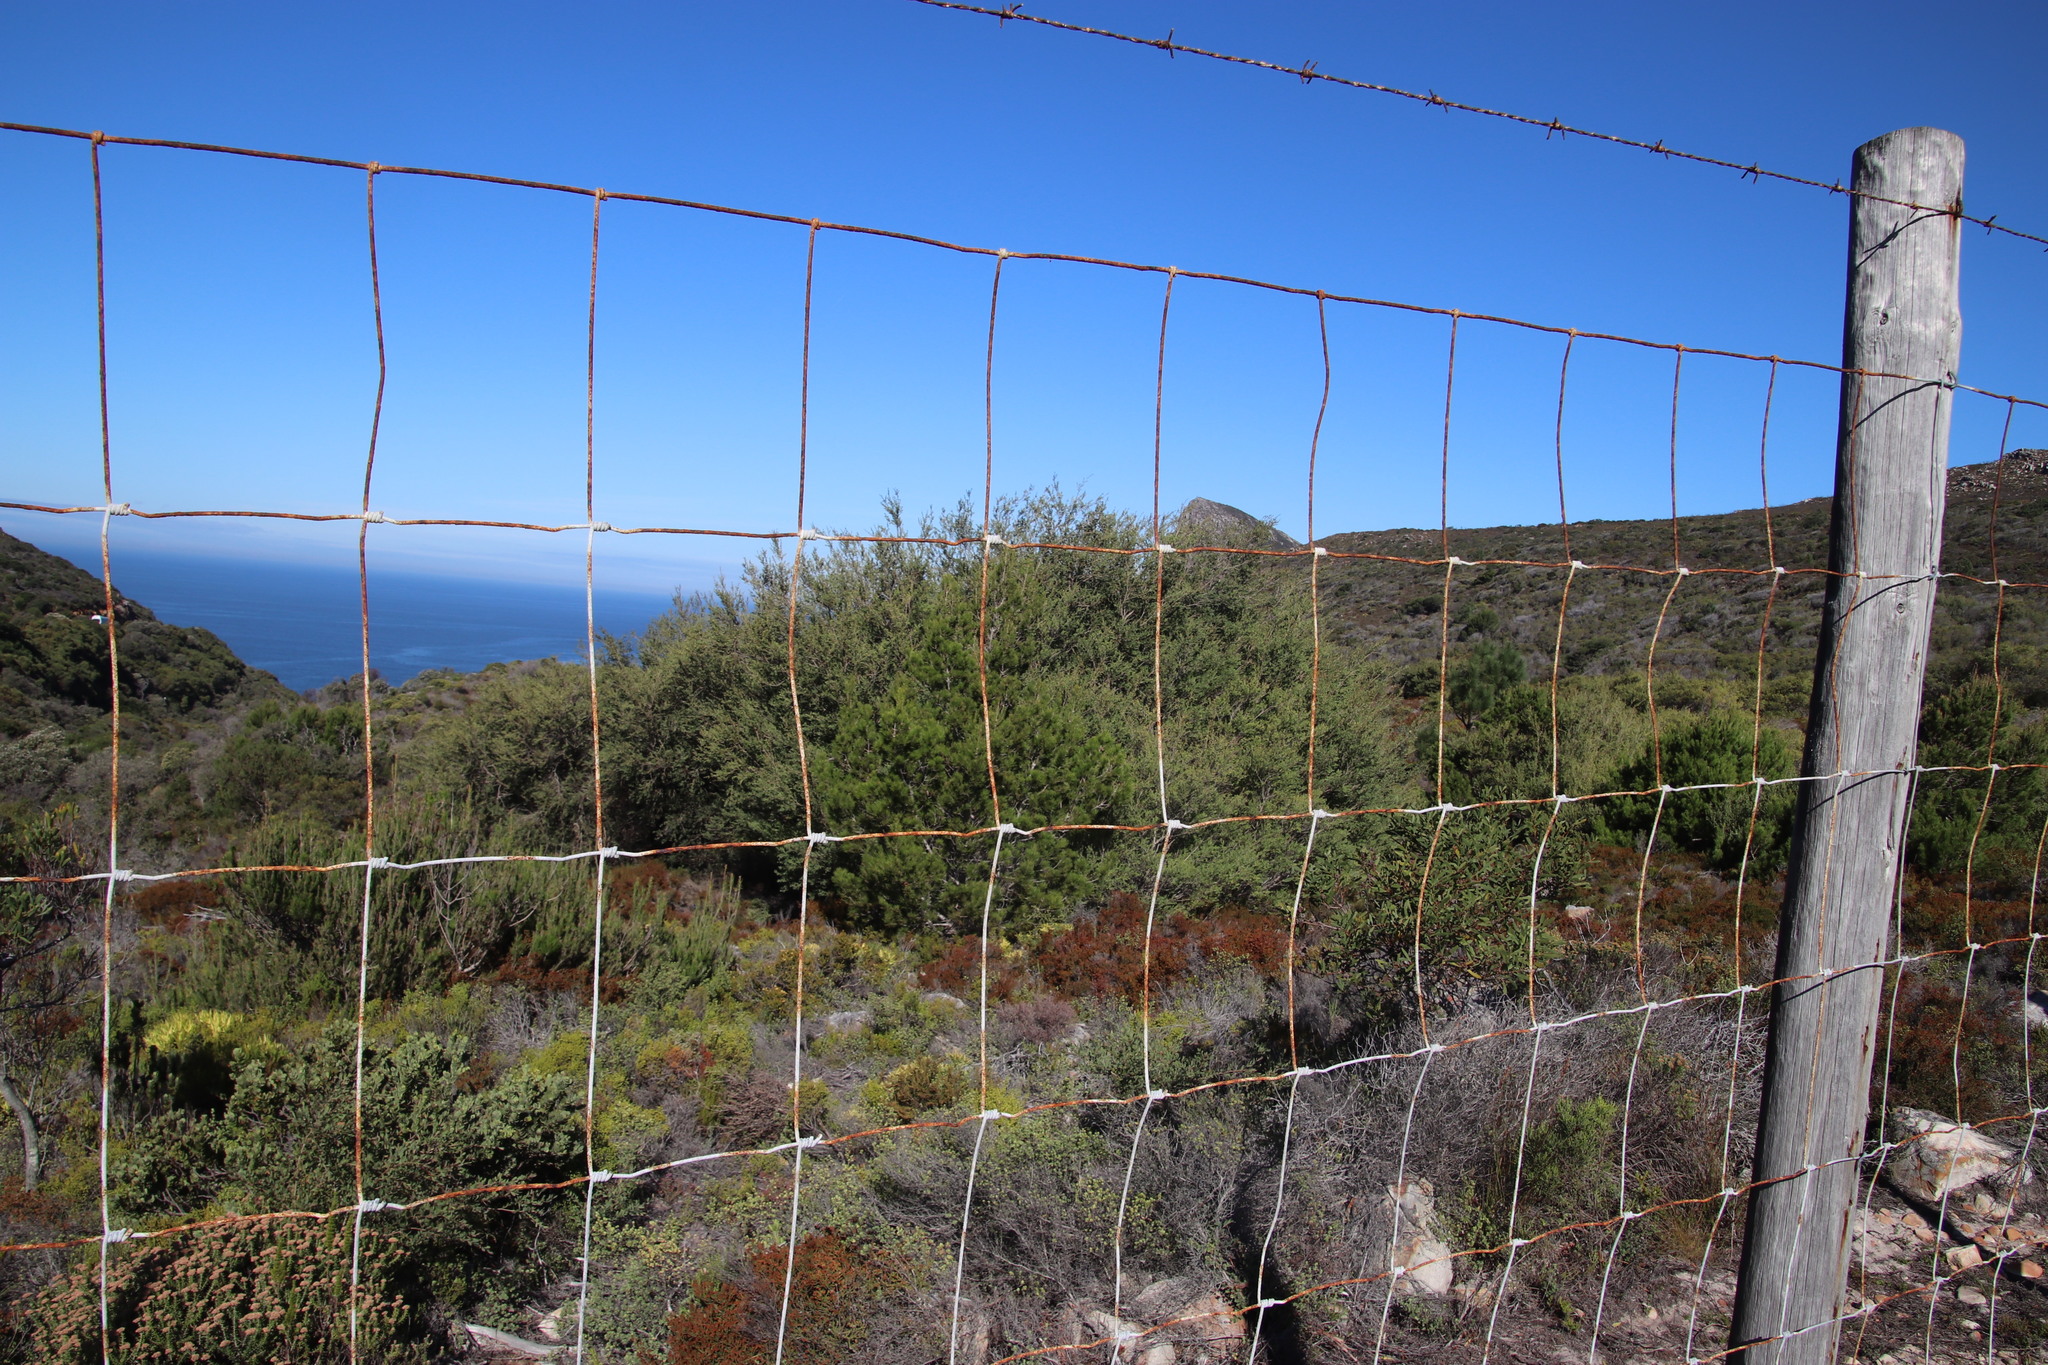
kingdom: Plantae
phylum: Tracheophyta
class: Magnoliopsida
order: Myrtales
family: Myrtaceae
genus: Leptospermum
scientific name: Leptospermum laevigatum
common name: Australian teatree
